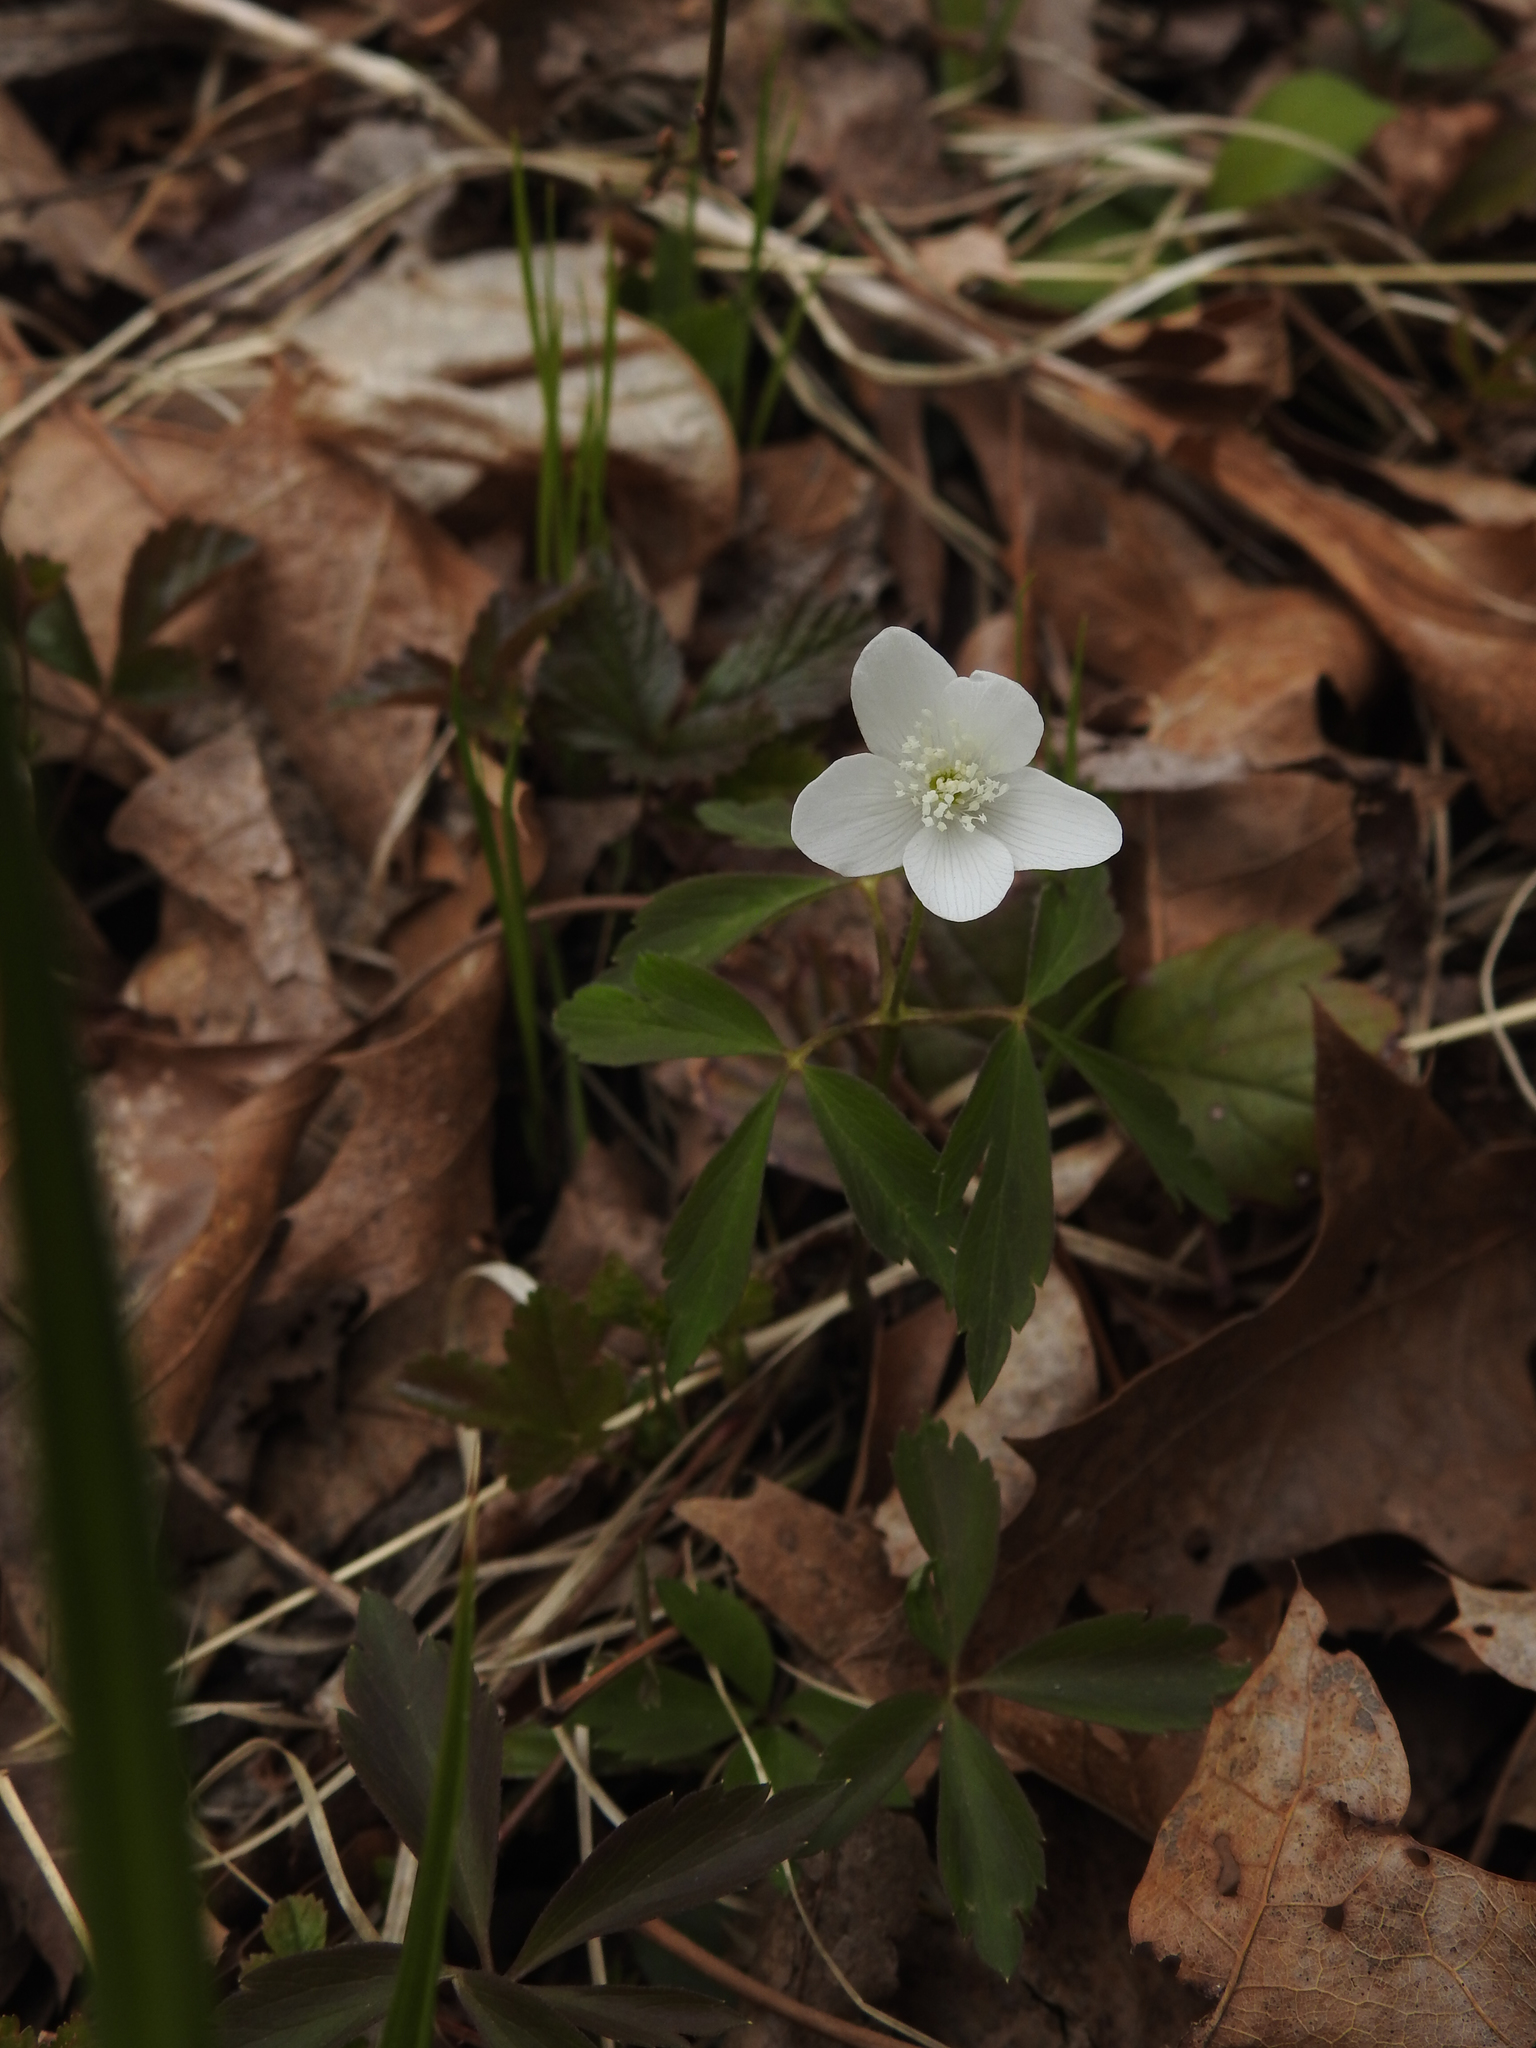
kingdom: Plantae
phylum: Tracheophyta
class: Magnoliopsida
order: Ranunculales
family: Ranunculaceae
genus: Anemone
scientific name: Anemone quinquefolia
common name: Wood anemone
